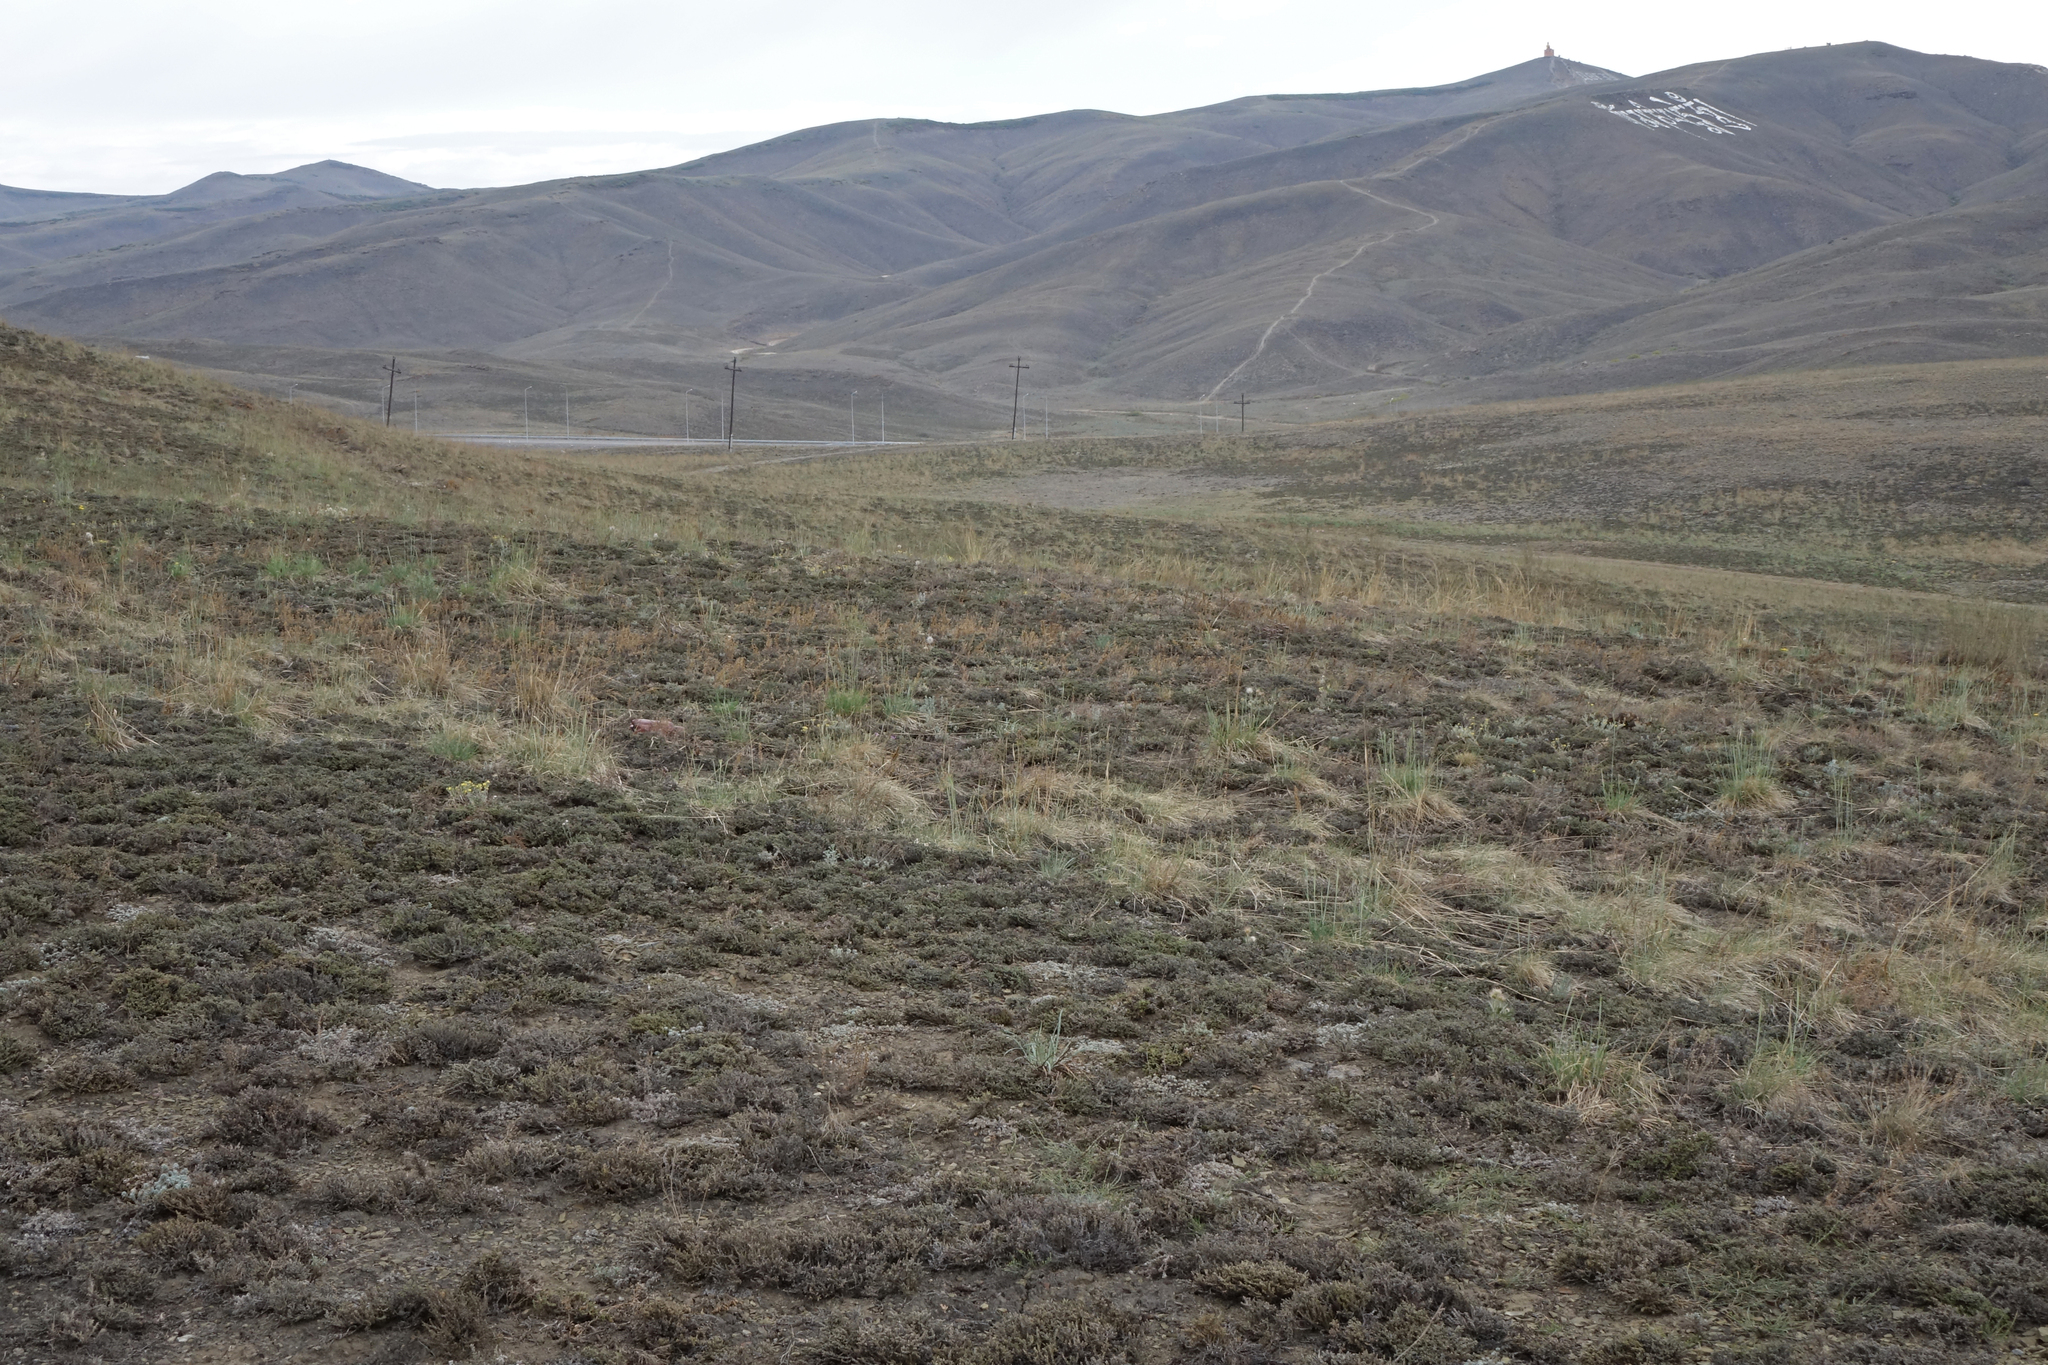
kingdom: Plantae
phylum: Tracheophyta
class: Magnoliopsida
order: Caryophyllales
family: Amaranthaceae
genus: Nanophyton
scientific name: Nanophyton grubovii
